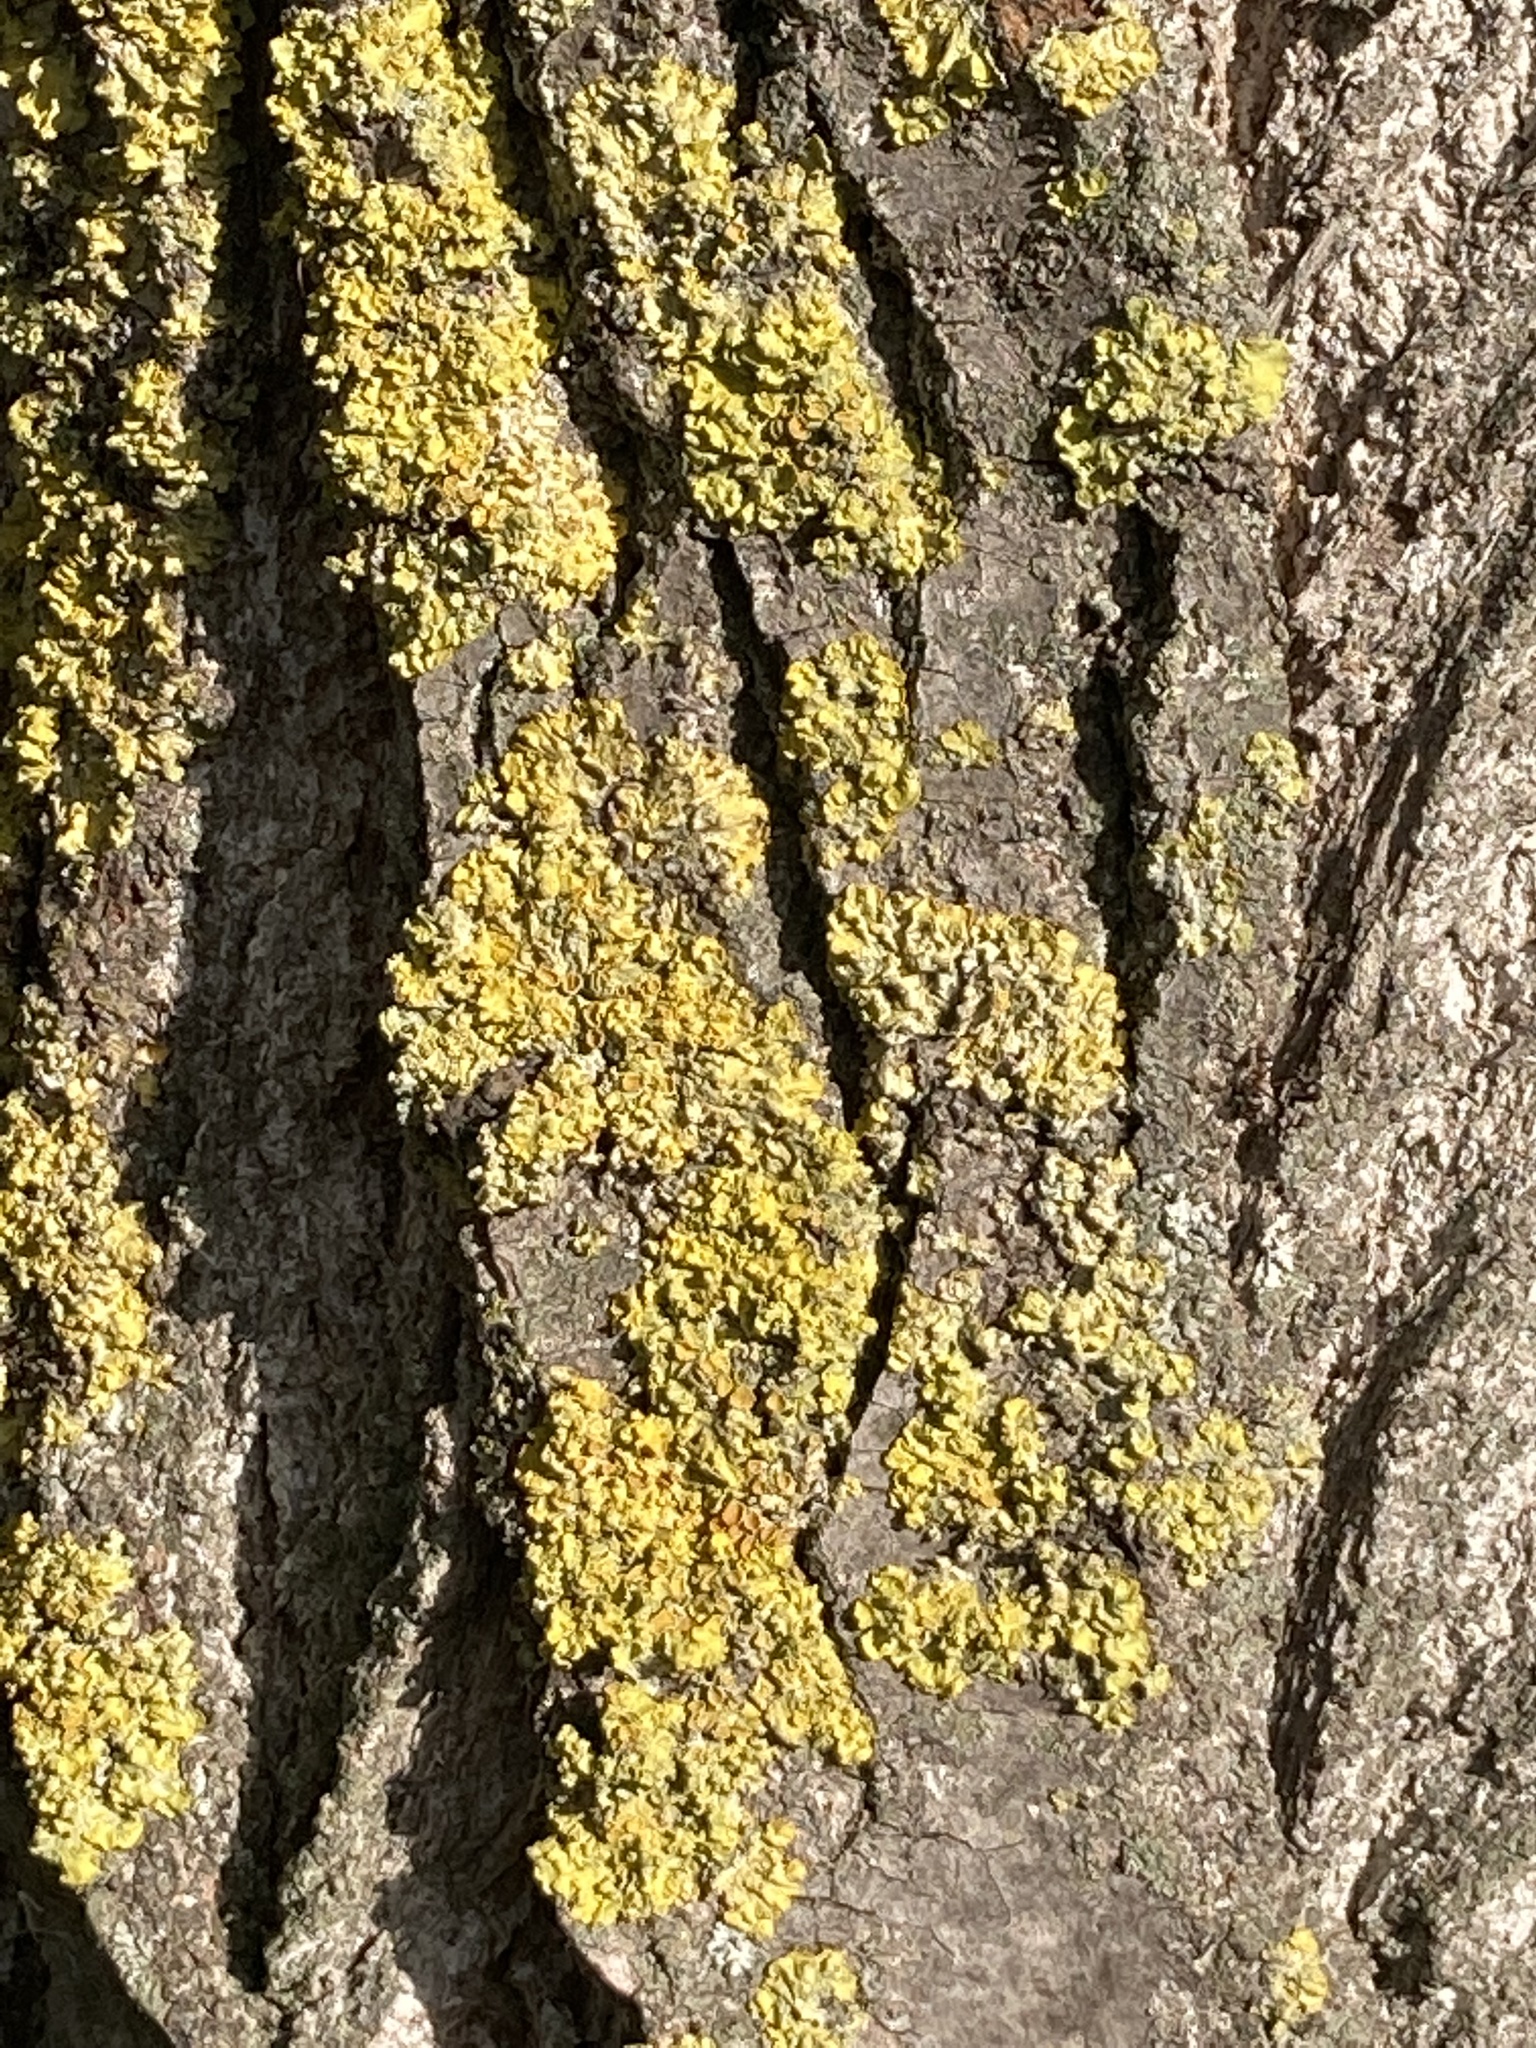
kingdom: Fungi
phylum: Ascomycota
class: Lecanoromycetes
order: Teloschistales
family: Teloschistaceae
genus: Xanthoria
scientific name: Xanthoria parietina
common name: Common orange lichen
